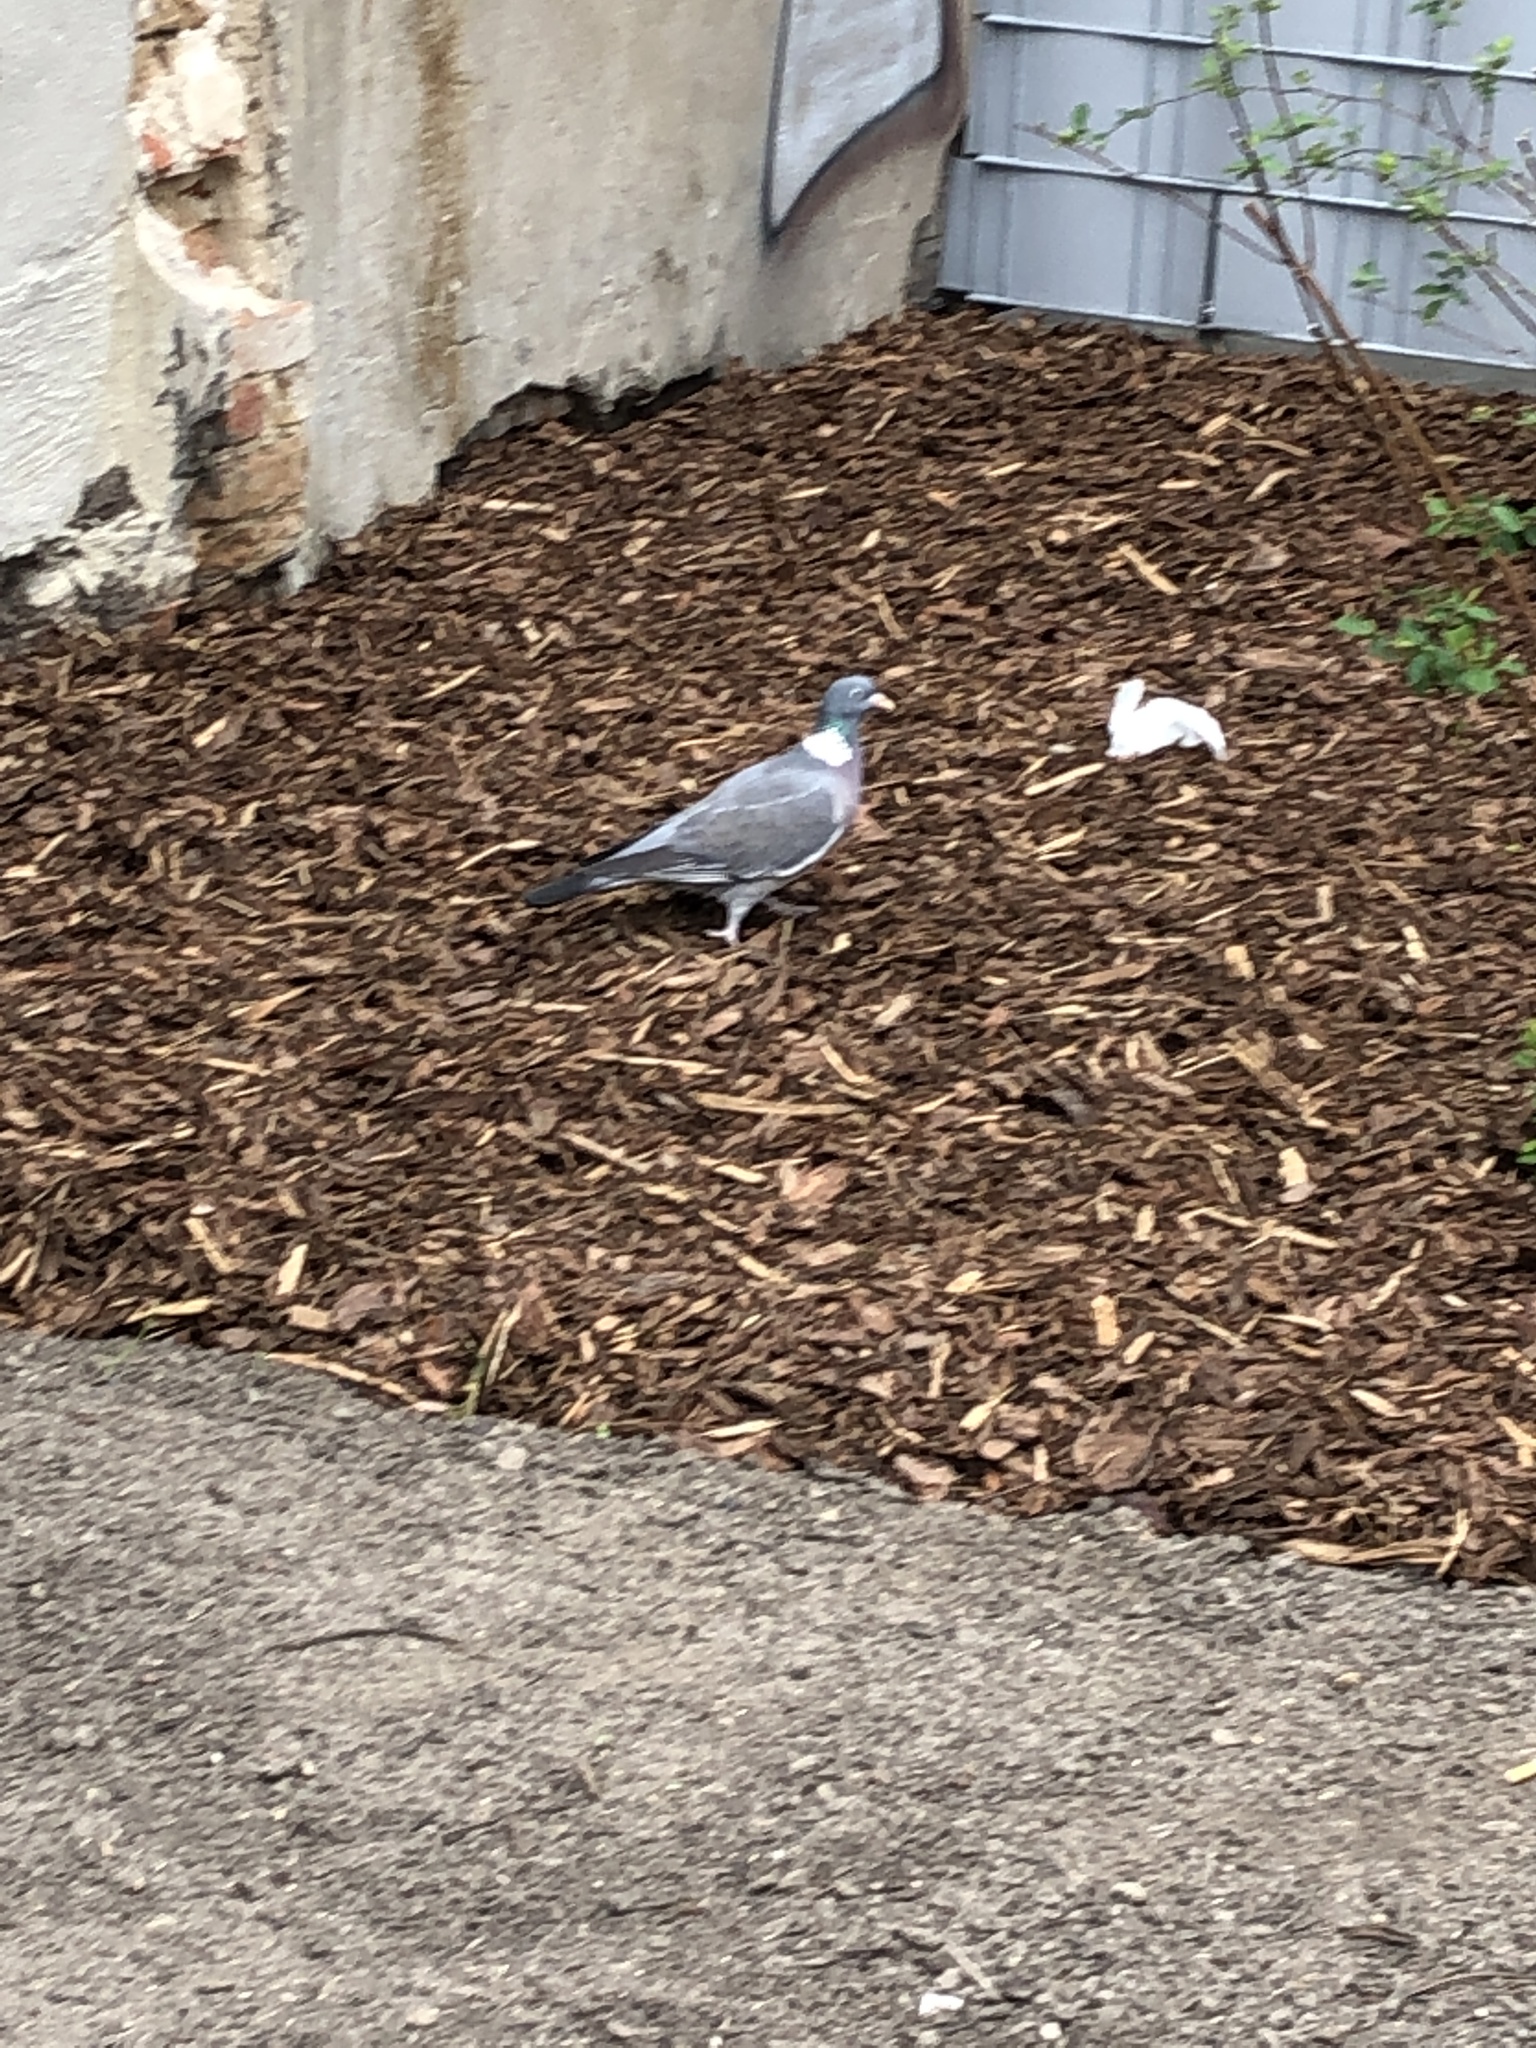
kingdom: Animalia
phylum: Chordata
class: Aves
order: Columbiformes
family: Columbidae
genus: Columba
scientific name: Columba palumbus
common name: Common wood pigeon
